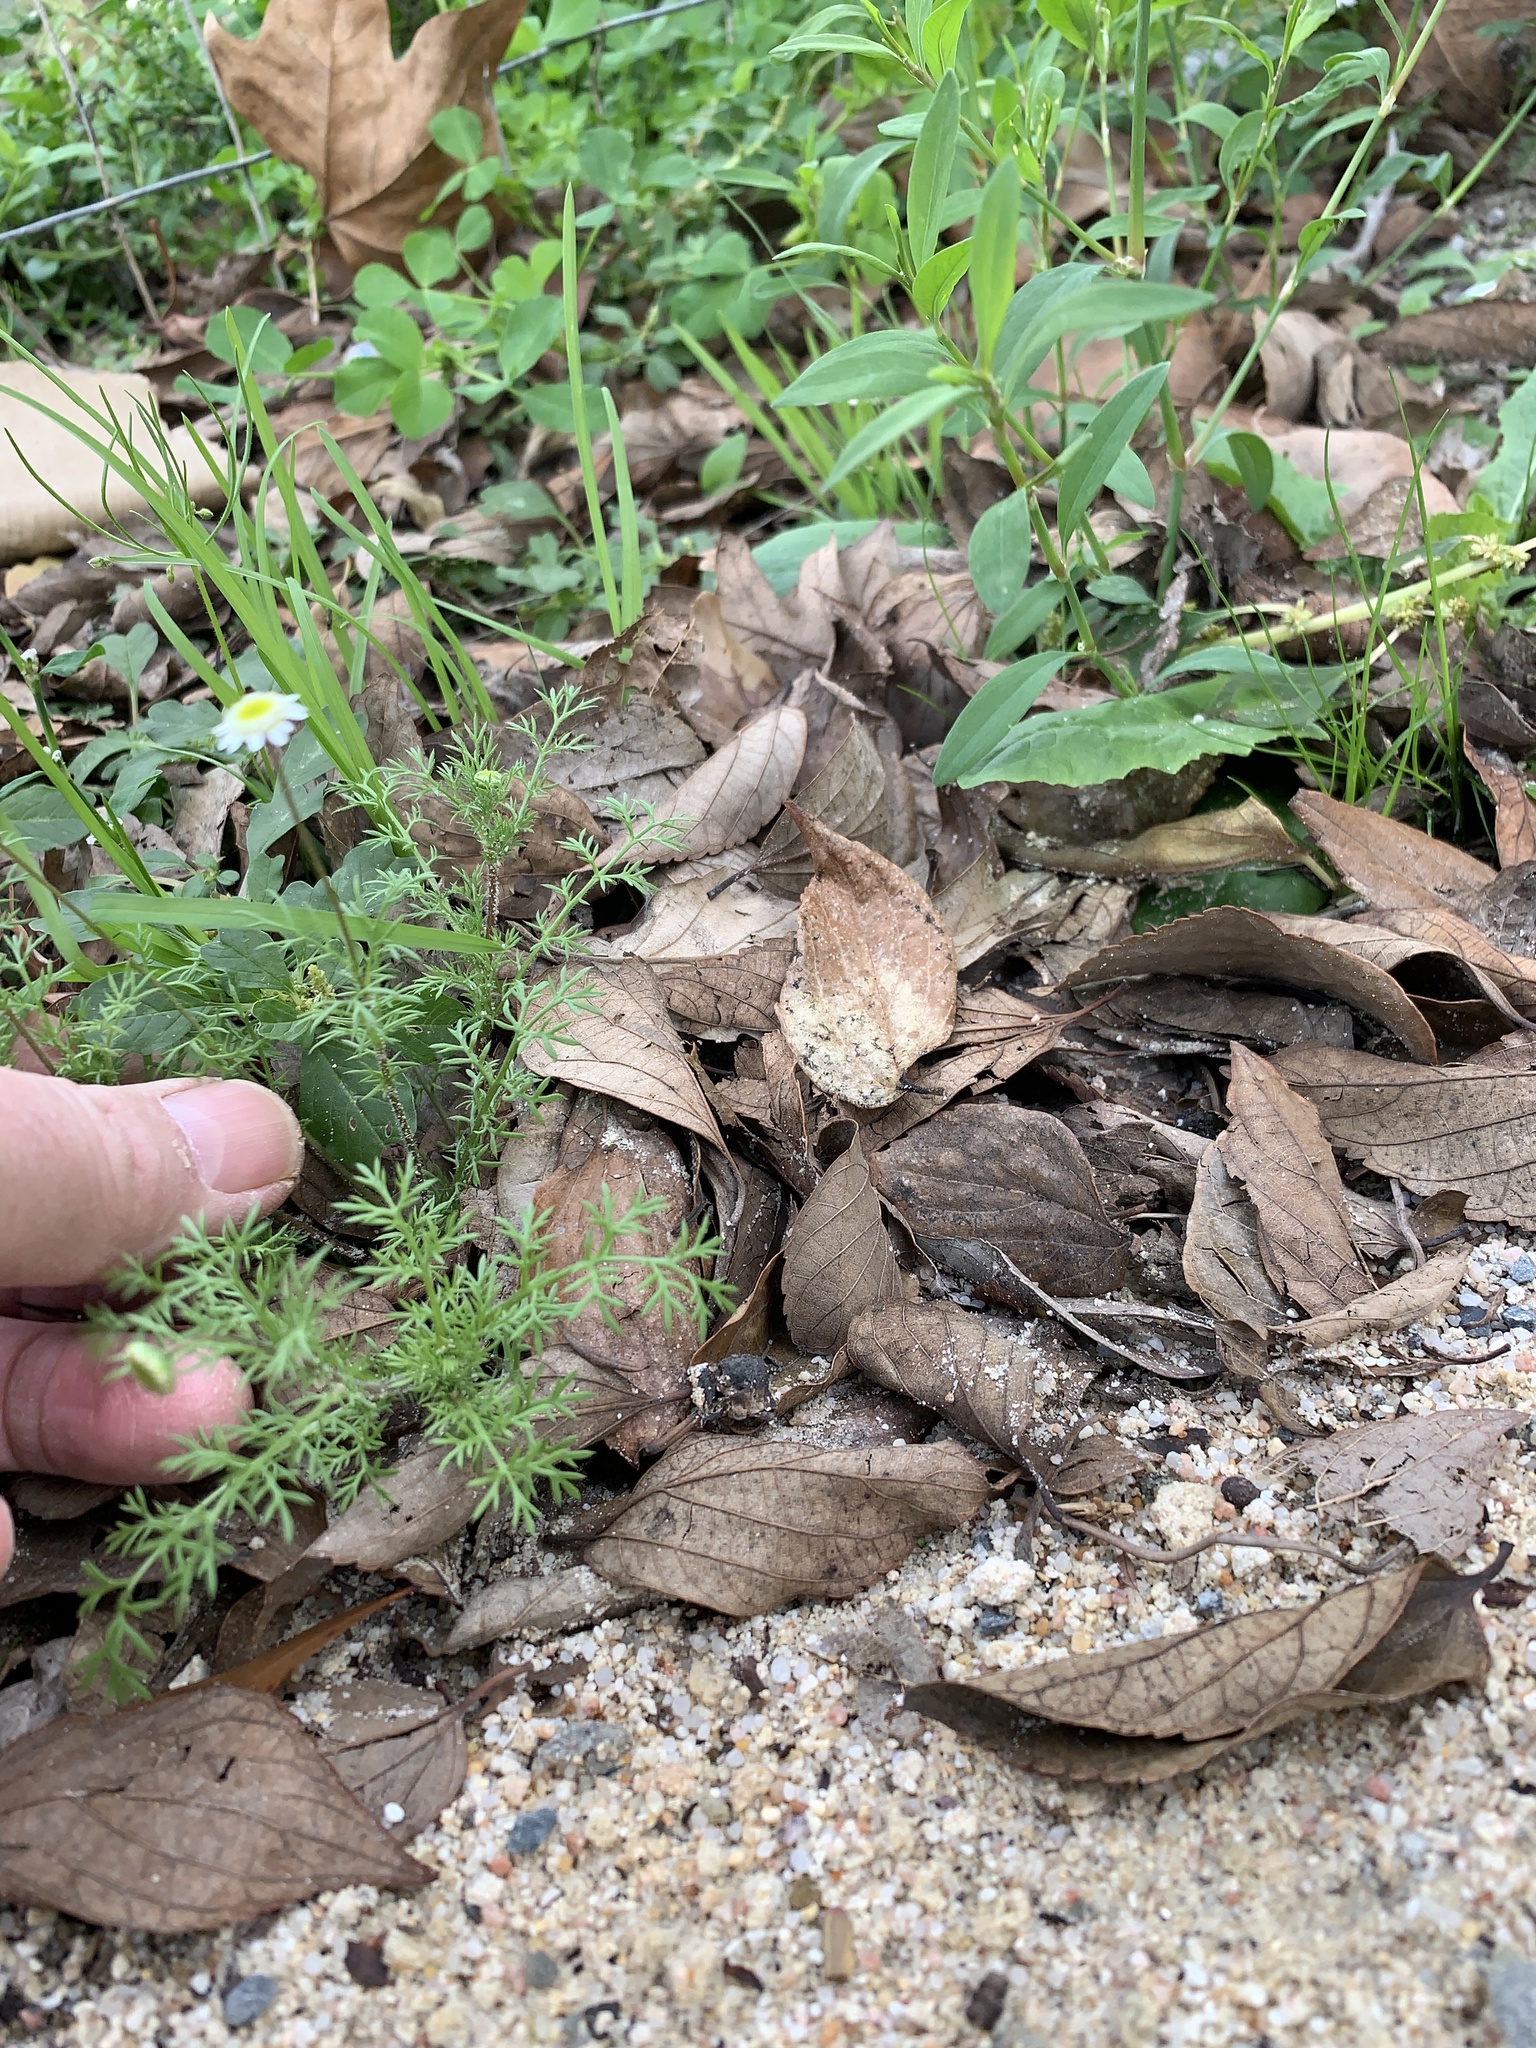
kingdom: Plantae
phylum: Tracheophyta
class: Magnoliopsida
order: Asterales
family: Asteraceae
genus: Cotula
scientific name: Cotula turbinata
